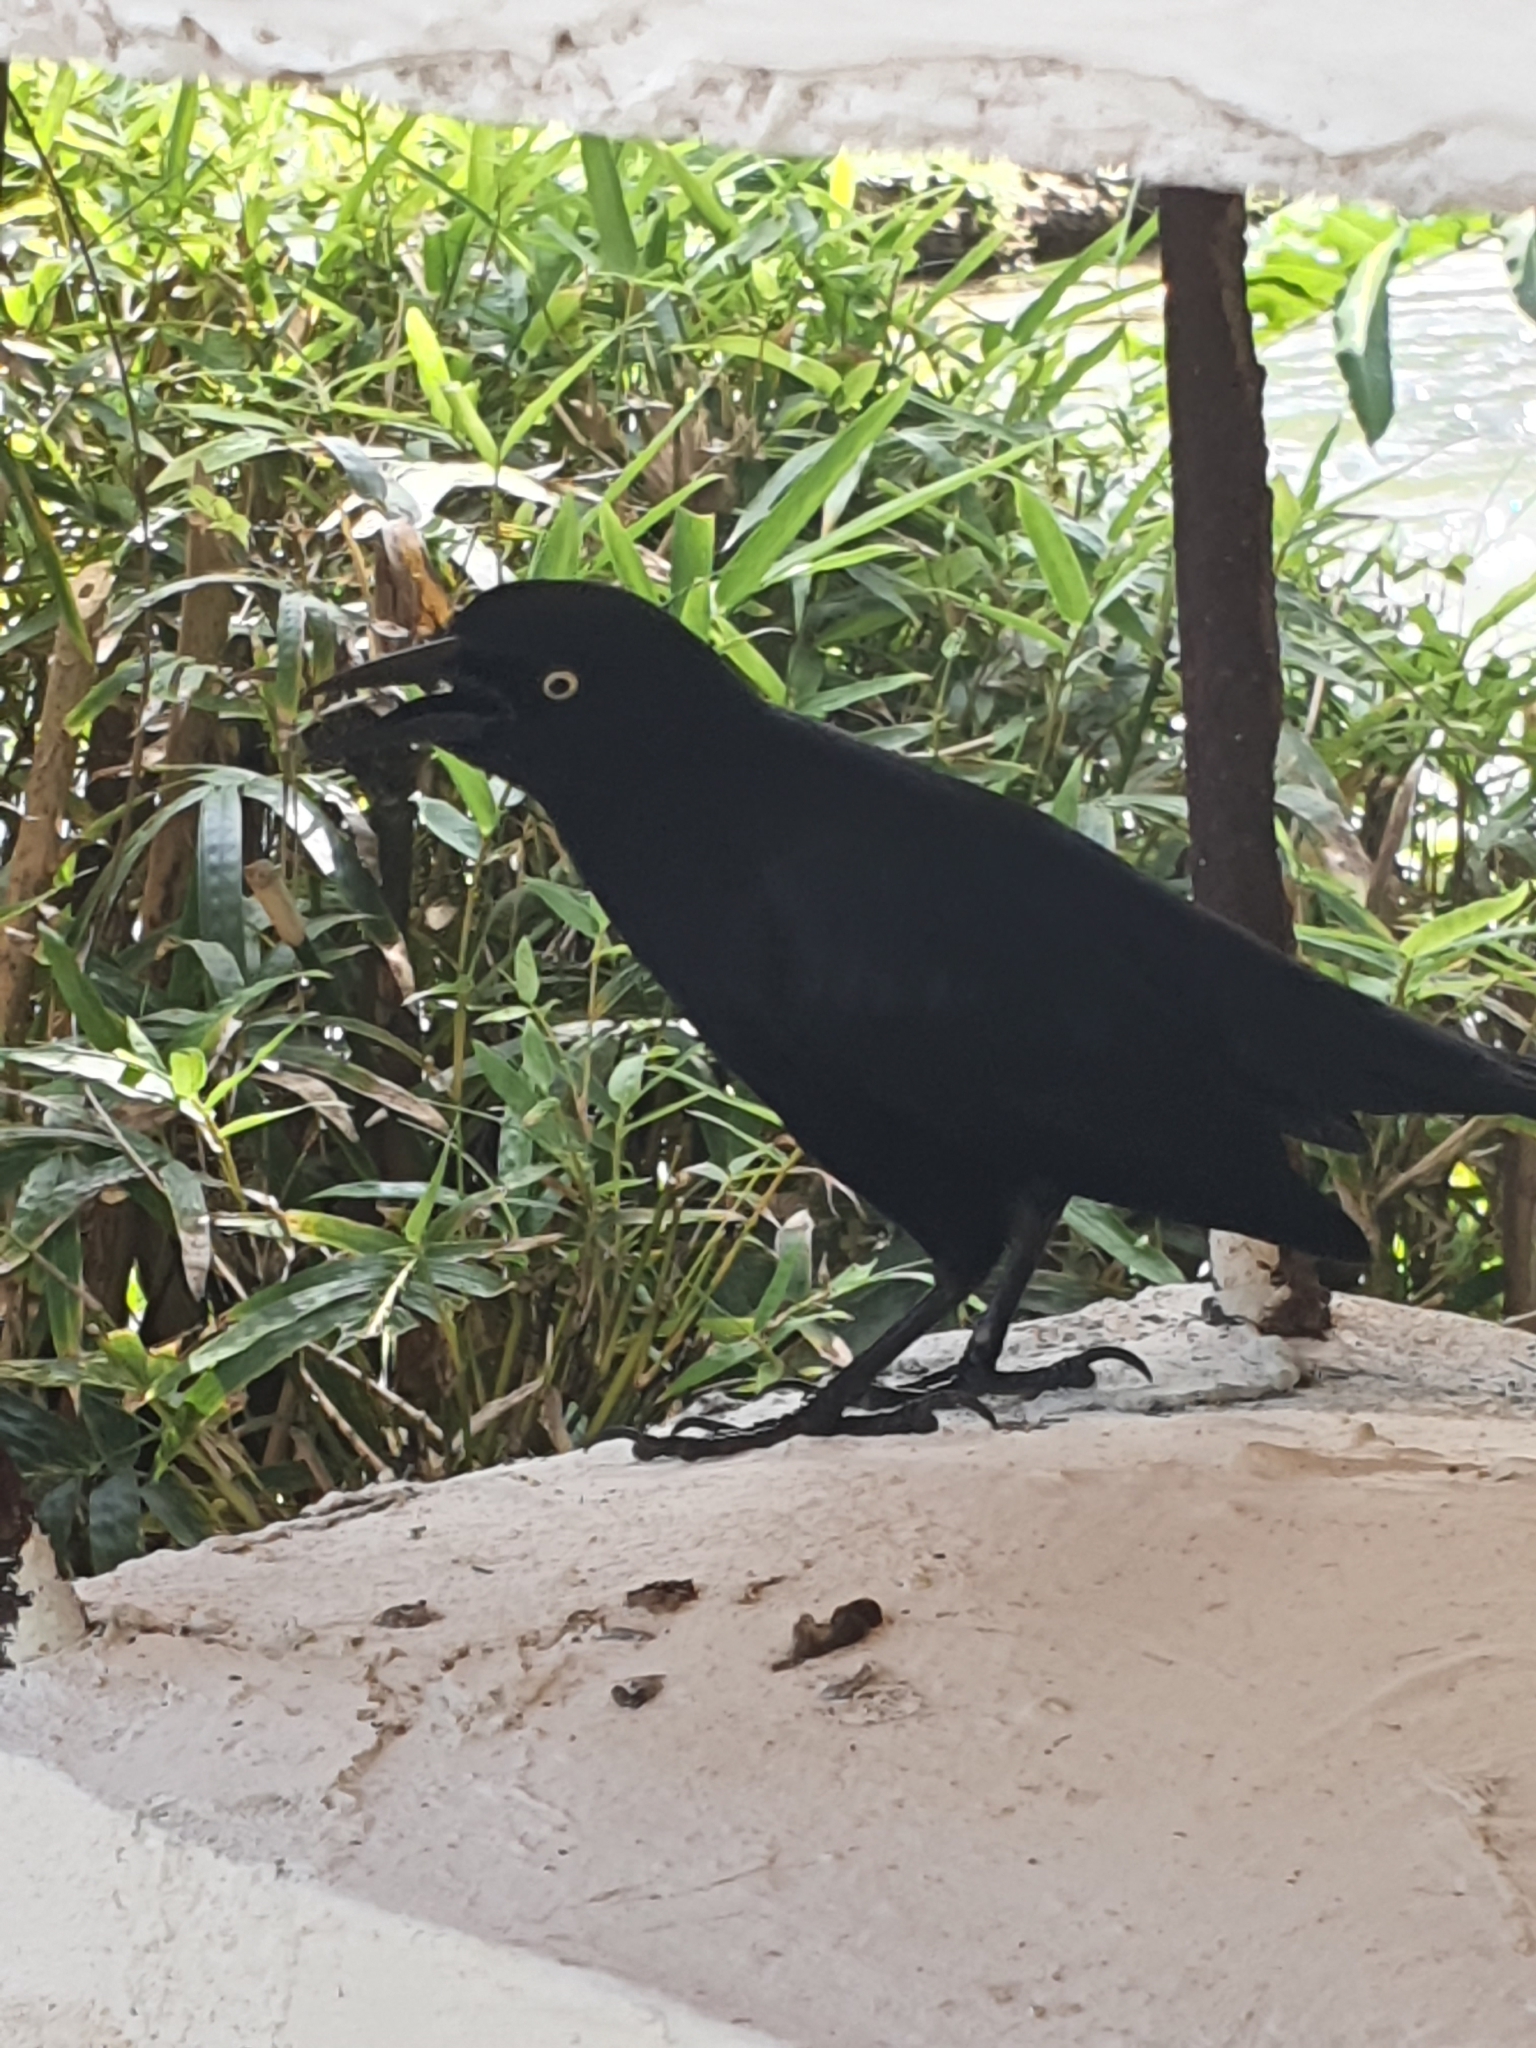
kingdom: Animalia
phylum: Chordata
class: Aves
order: Passeriformes
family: Icteridae
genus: Quiscalus
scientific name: Quiscalus niger
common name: Greater antillean grackle
